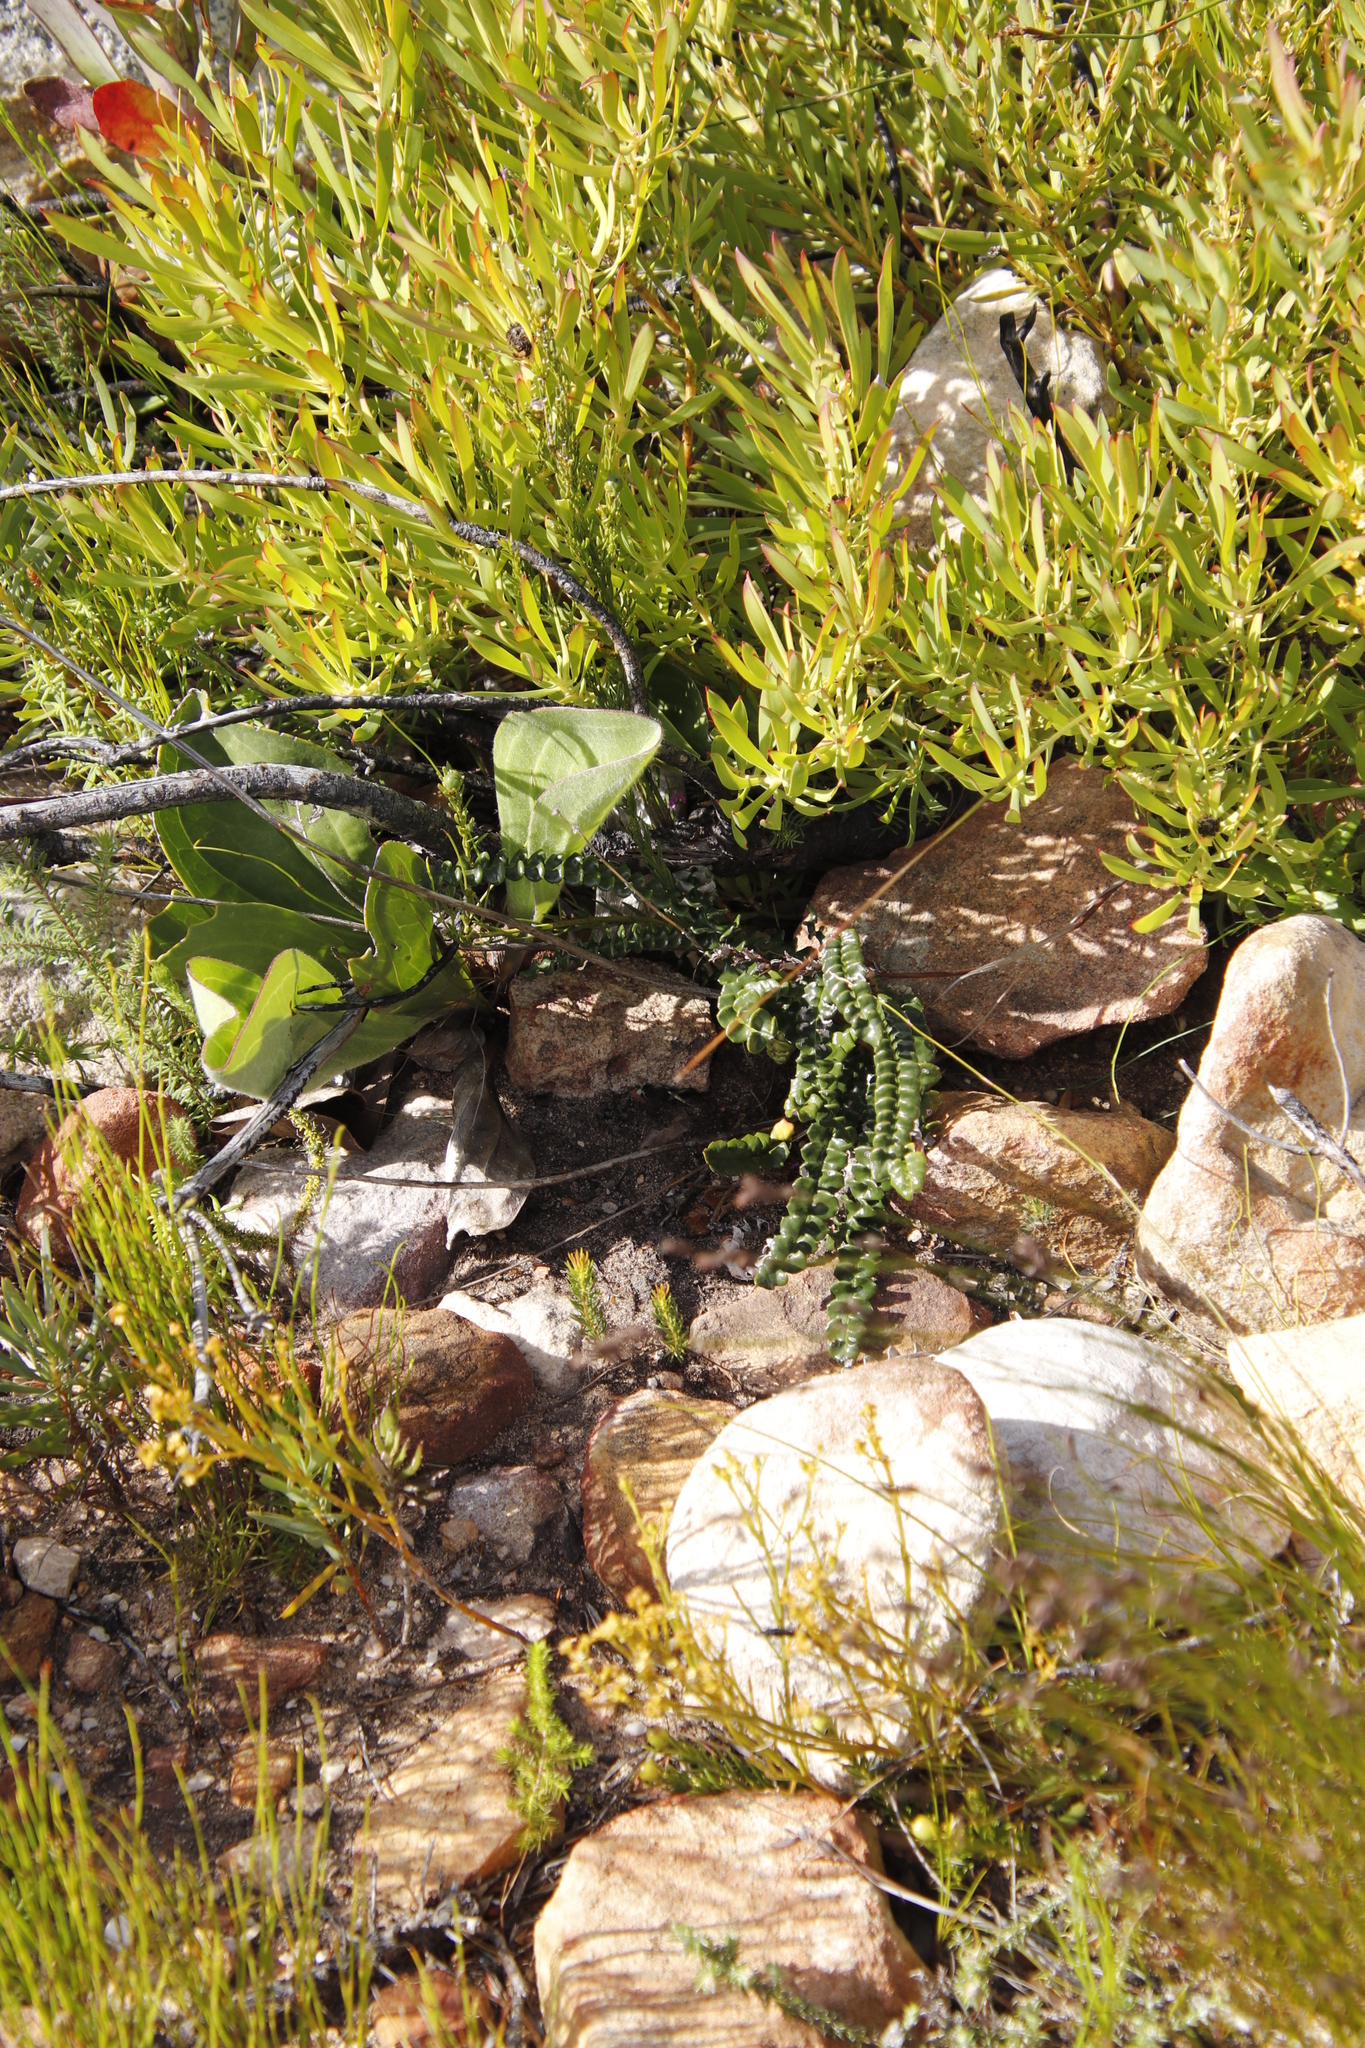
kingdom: Plantae
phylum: Tracheophyta
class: Magnoliopsida
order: Asterales
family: Asteraceae
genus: Gerbera
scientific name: Gerbera linnaei
